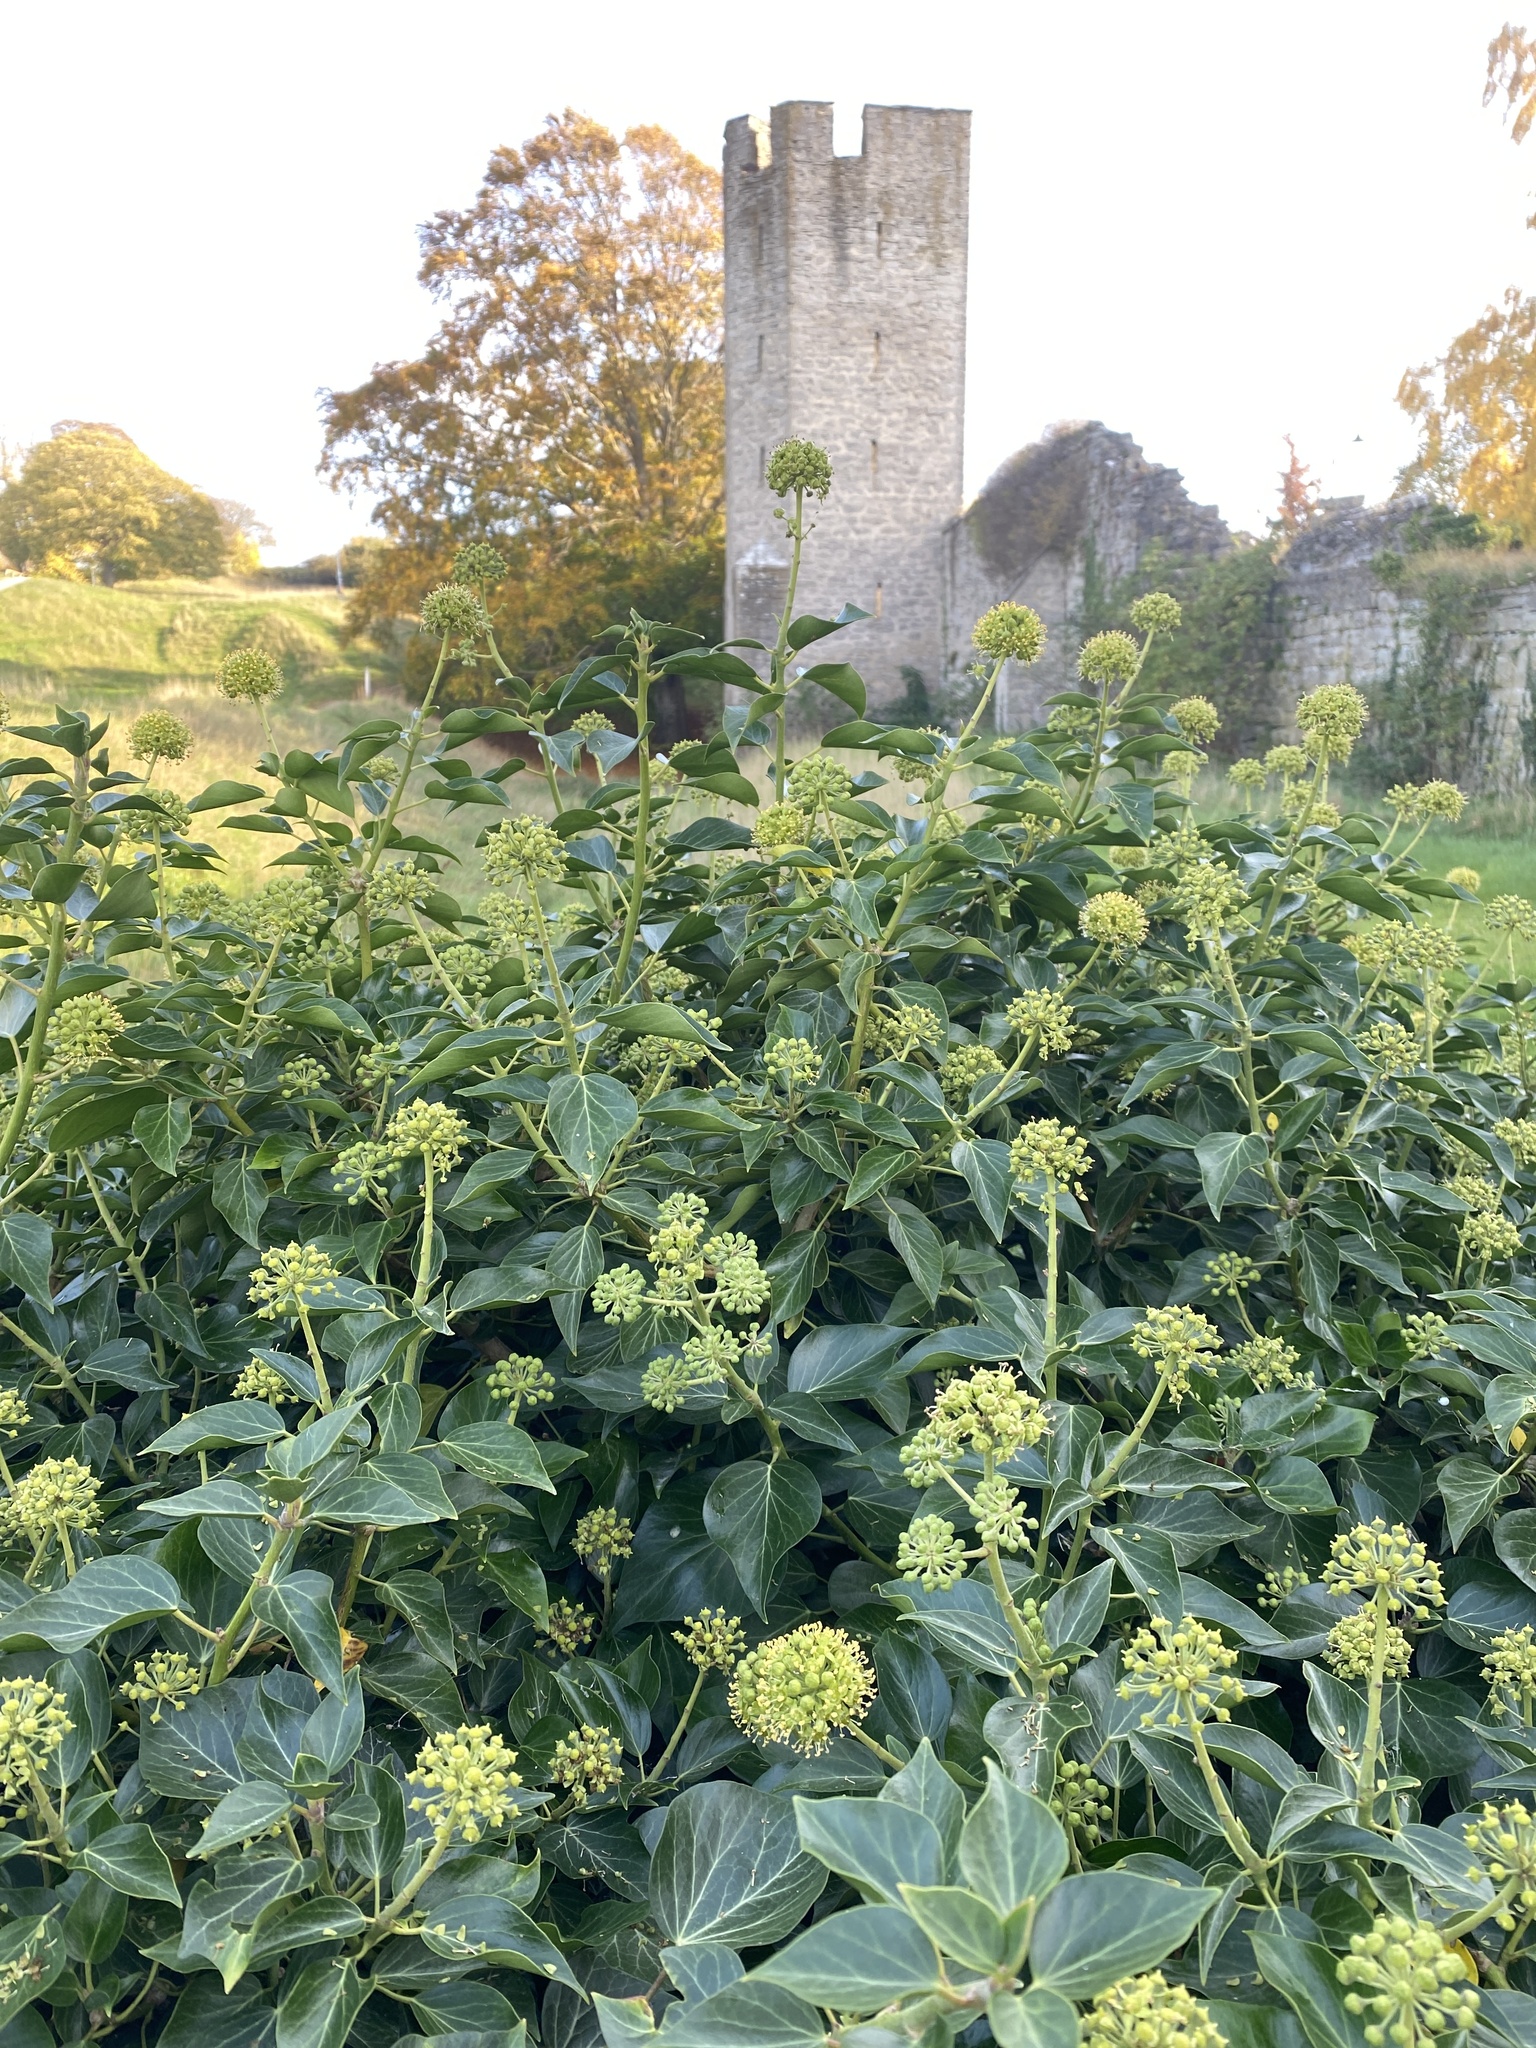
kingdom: Plantae
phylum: Tracheophyta
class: Magnoliopsida
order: Apiales
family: Araliaceae
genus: Hedera
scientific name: Hedera helix
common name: Ivy
